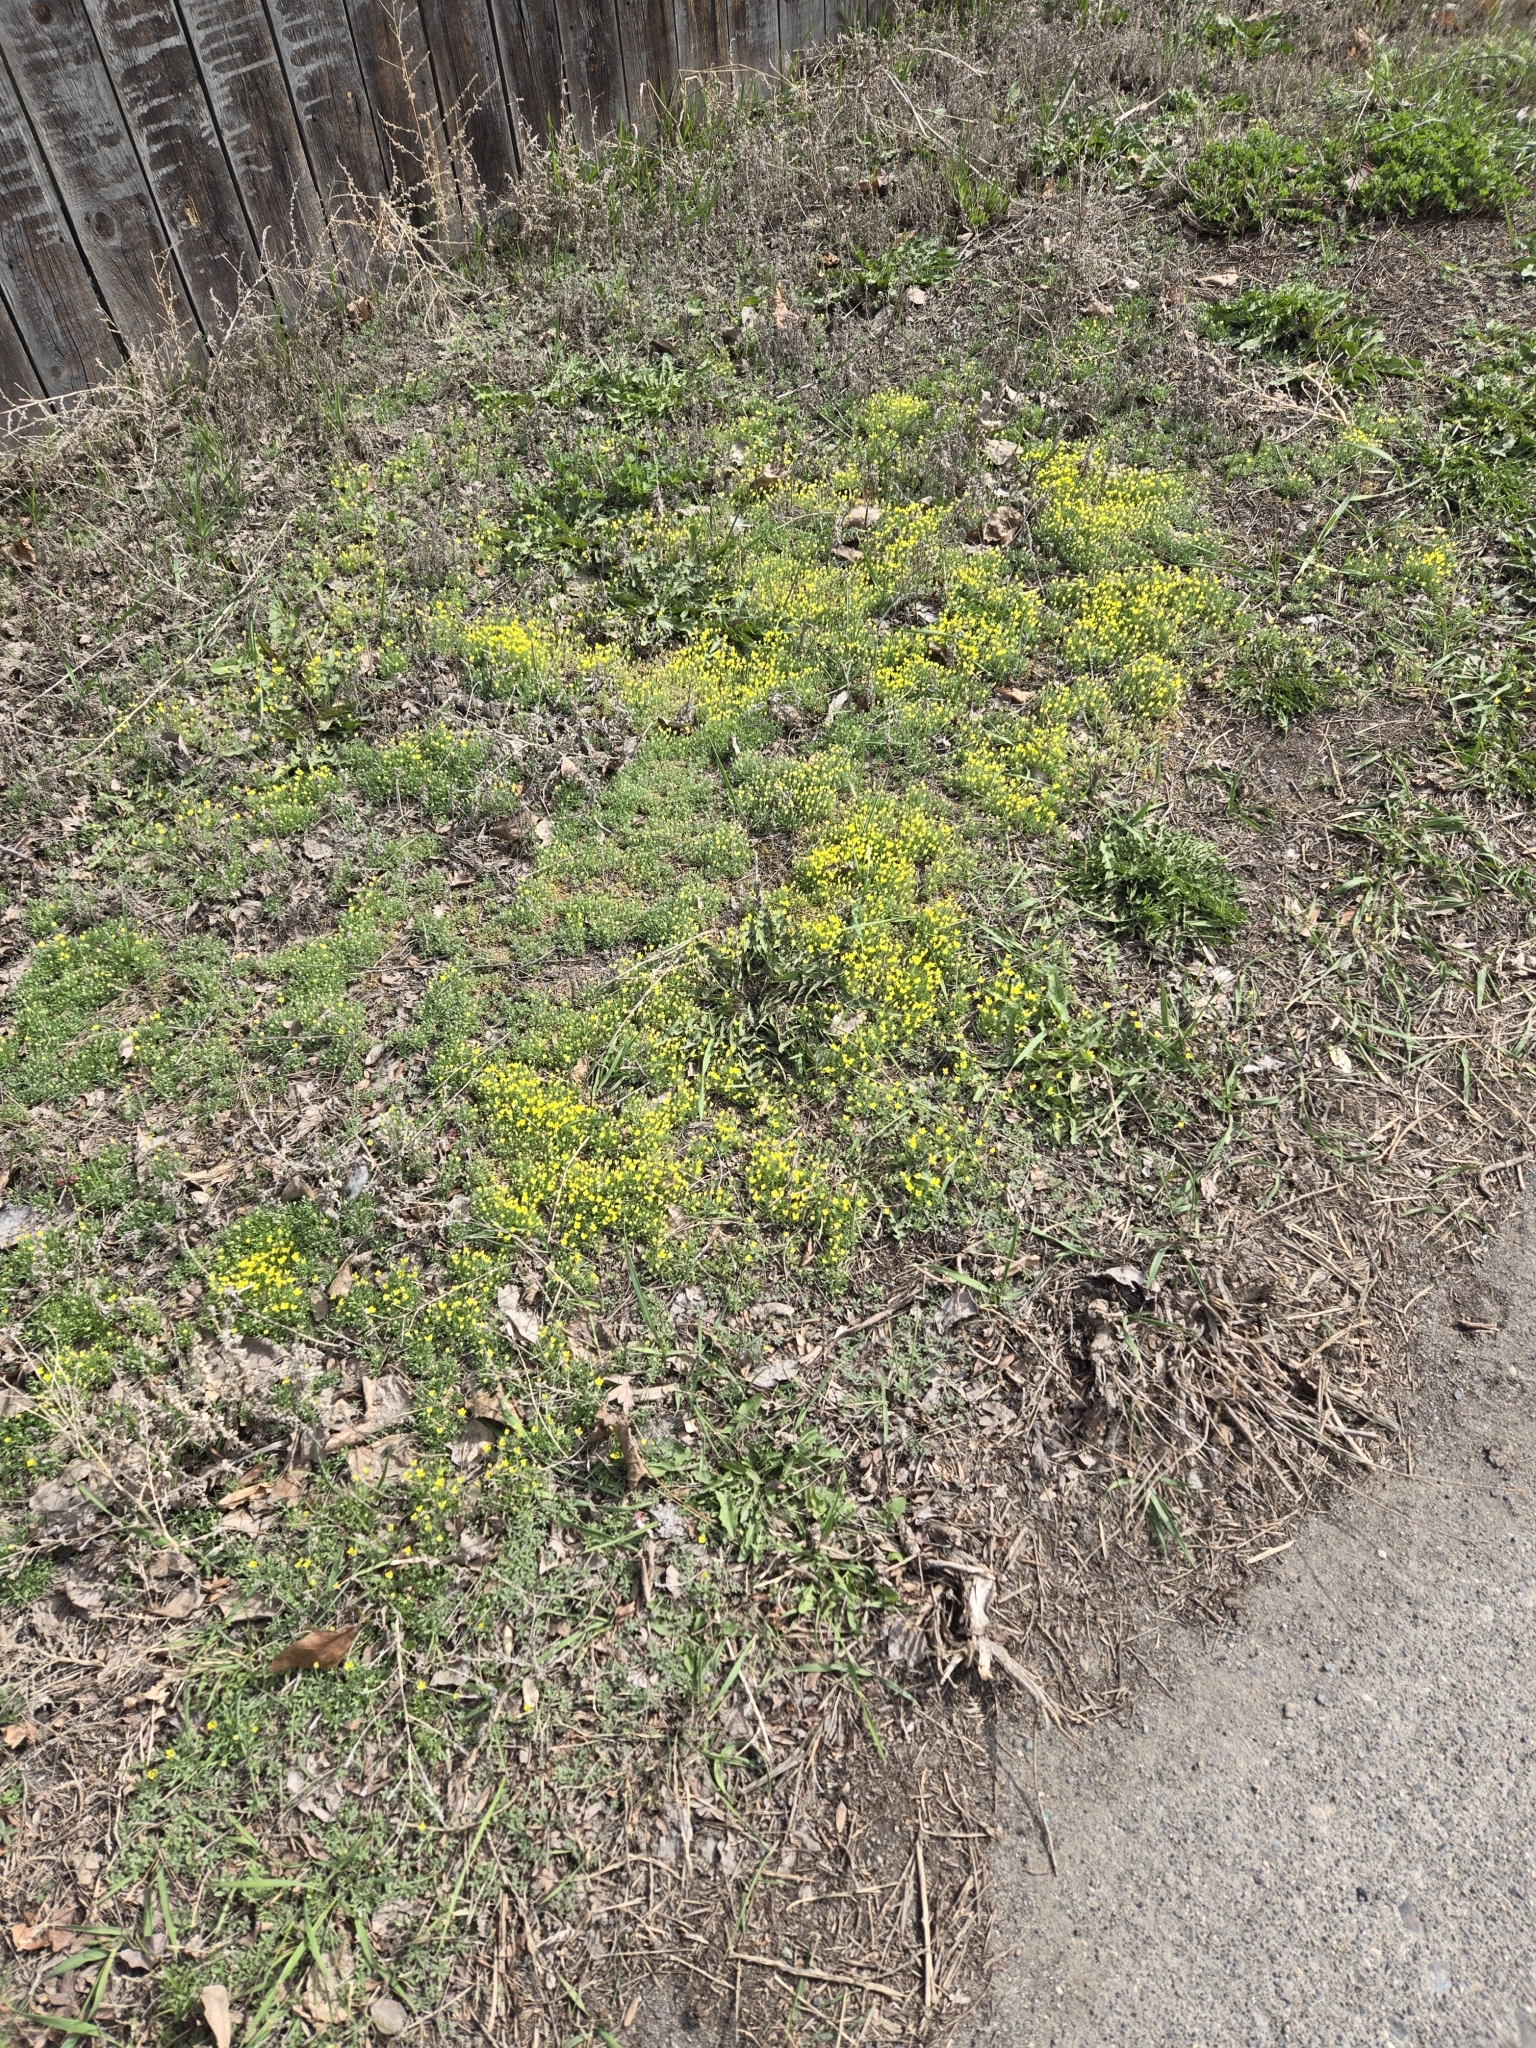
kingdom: Plantae
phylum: Tracheophyta
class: Magnoliopsida
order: Ranunculales
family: Ranunculaceae
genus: Ceratocephala
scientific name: Ceratocephala orthoceras
